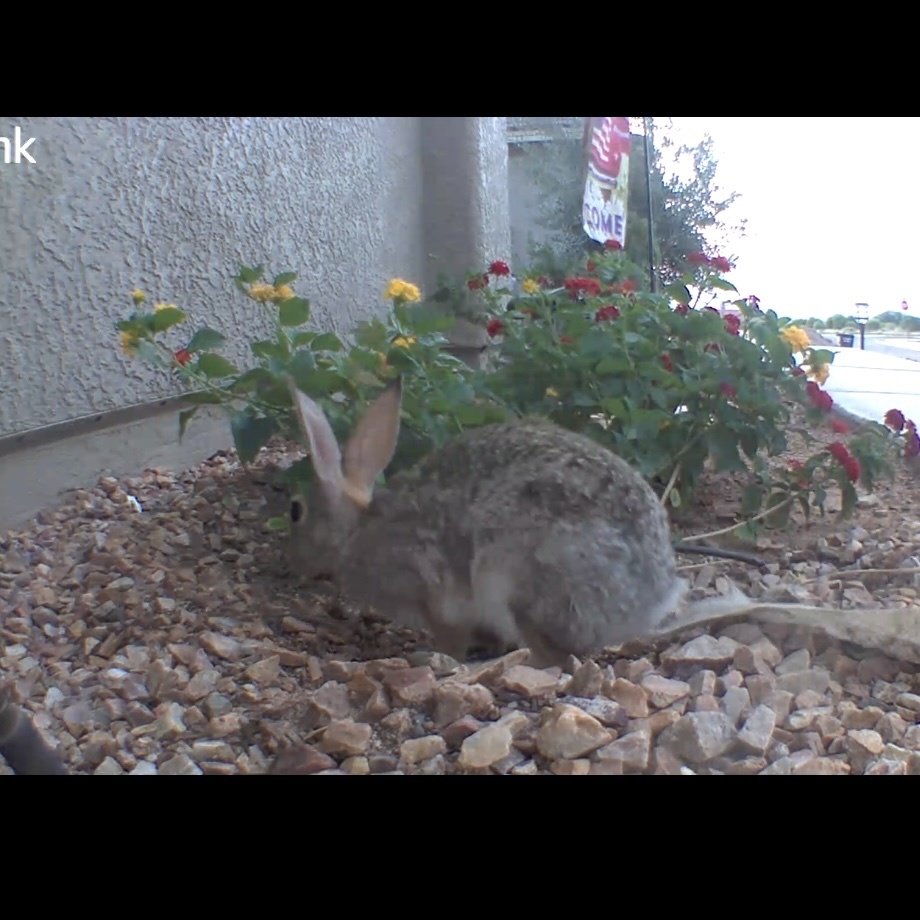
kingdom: Animalia
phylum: Chordata
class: Mammalia
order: Lagomorpha
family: Leporidae
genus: Sylvilagus
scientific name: Sylvilagus audubonii
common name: Desert cottontail
